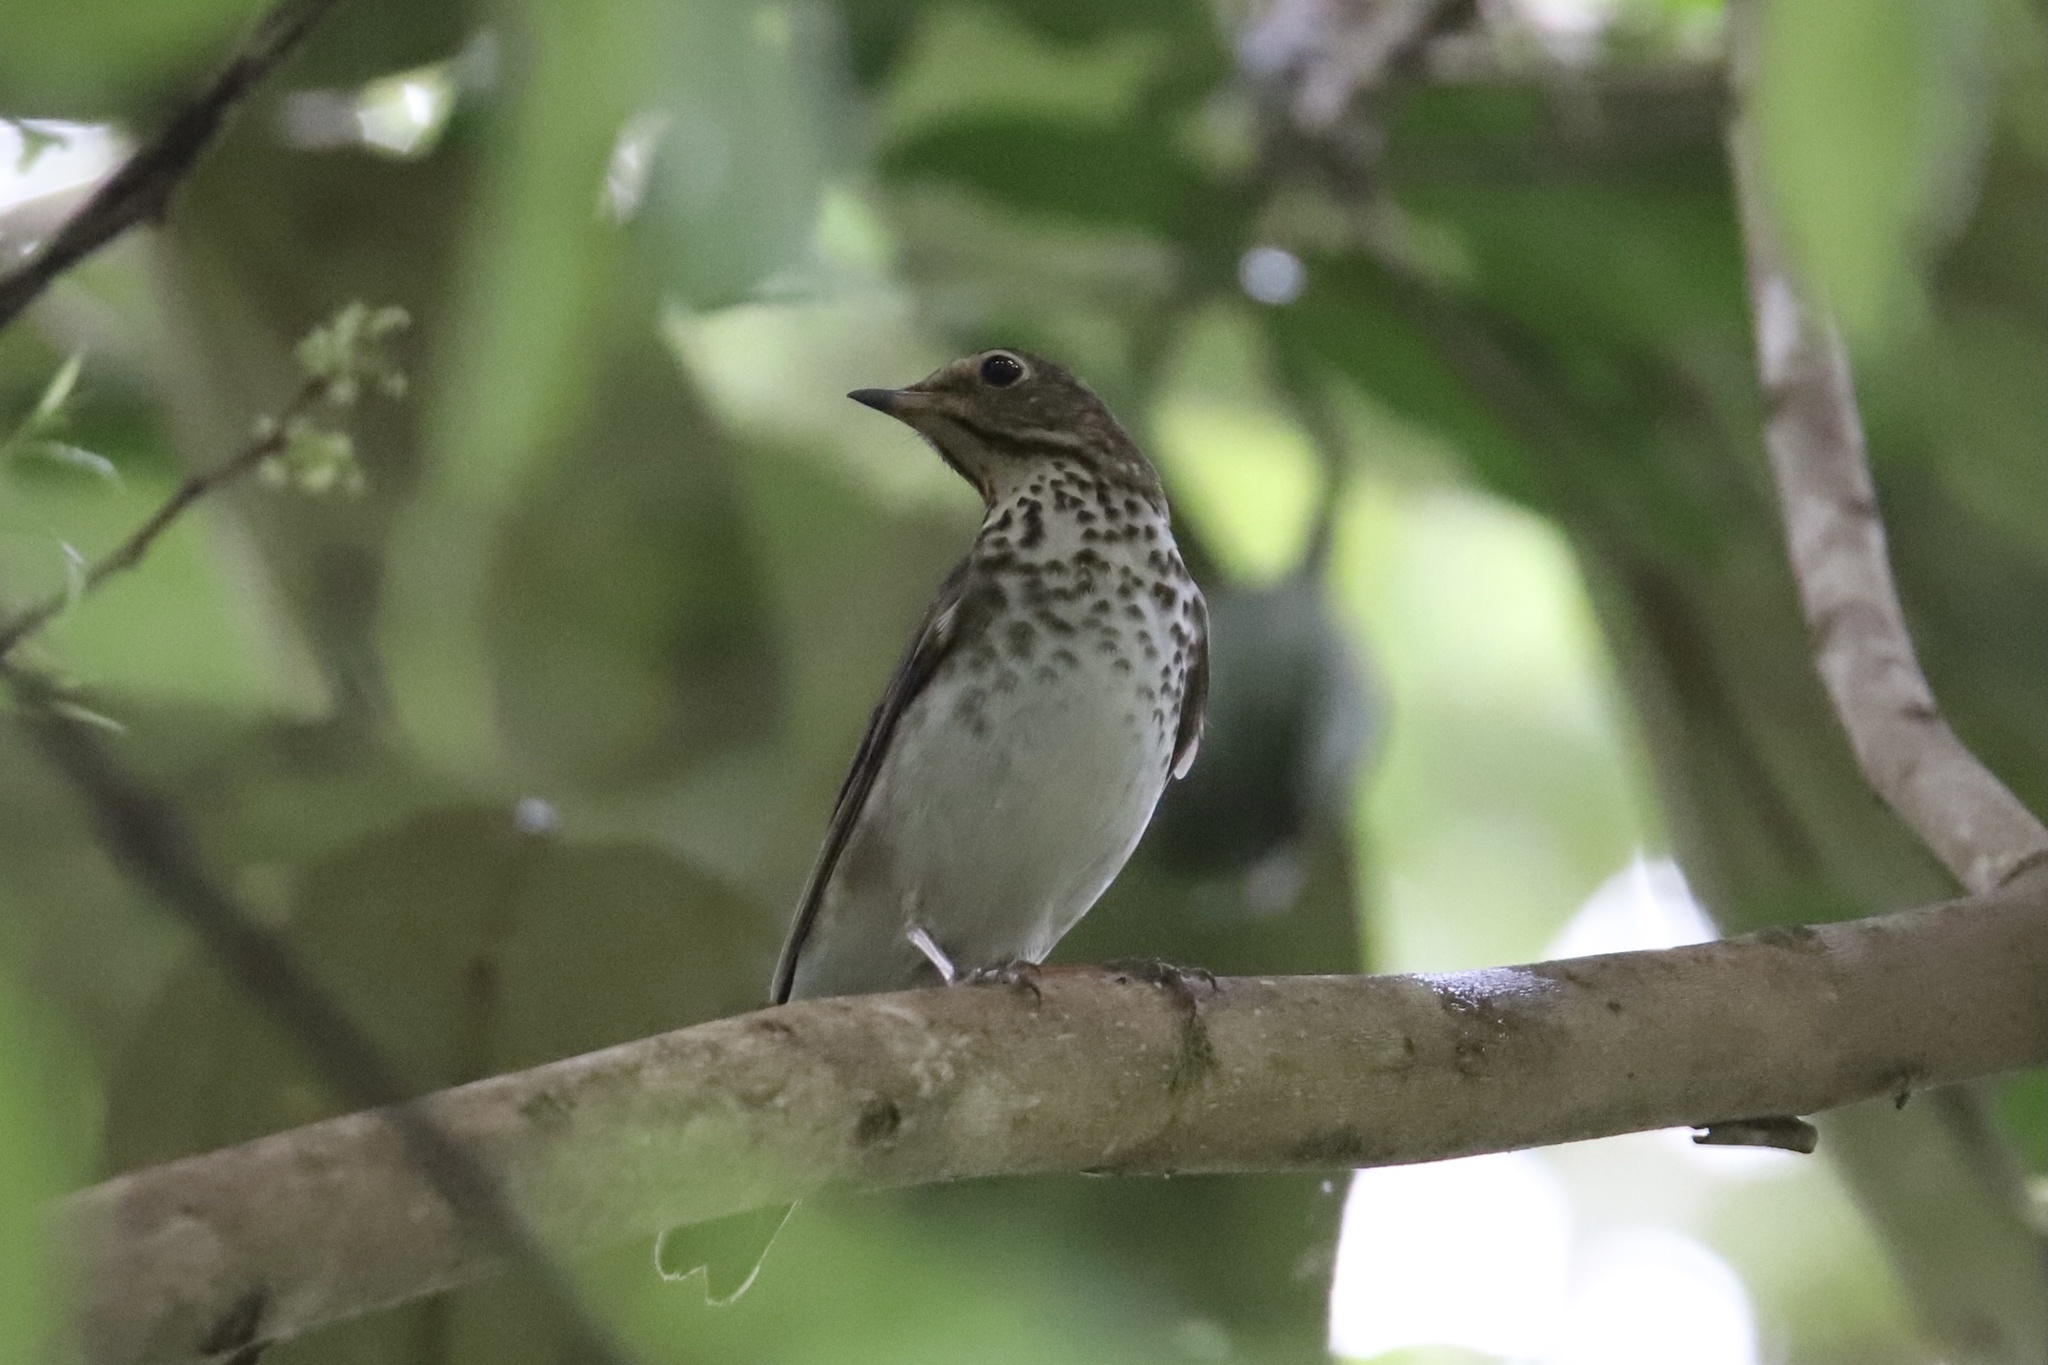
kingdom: Animalia
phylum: Chordata
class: Aves
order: Passeriformes
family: Turdidae
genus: Catharus
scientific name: Catharus ustulatus
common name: Swainson's thrush
